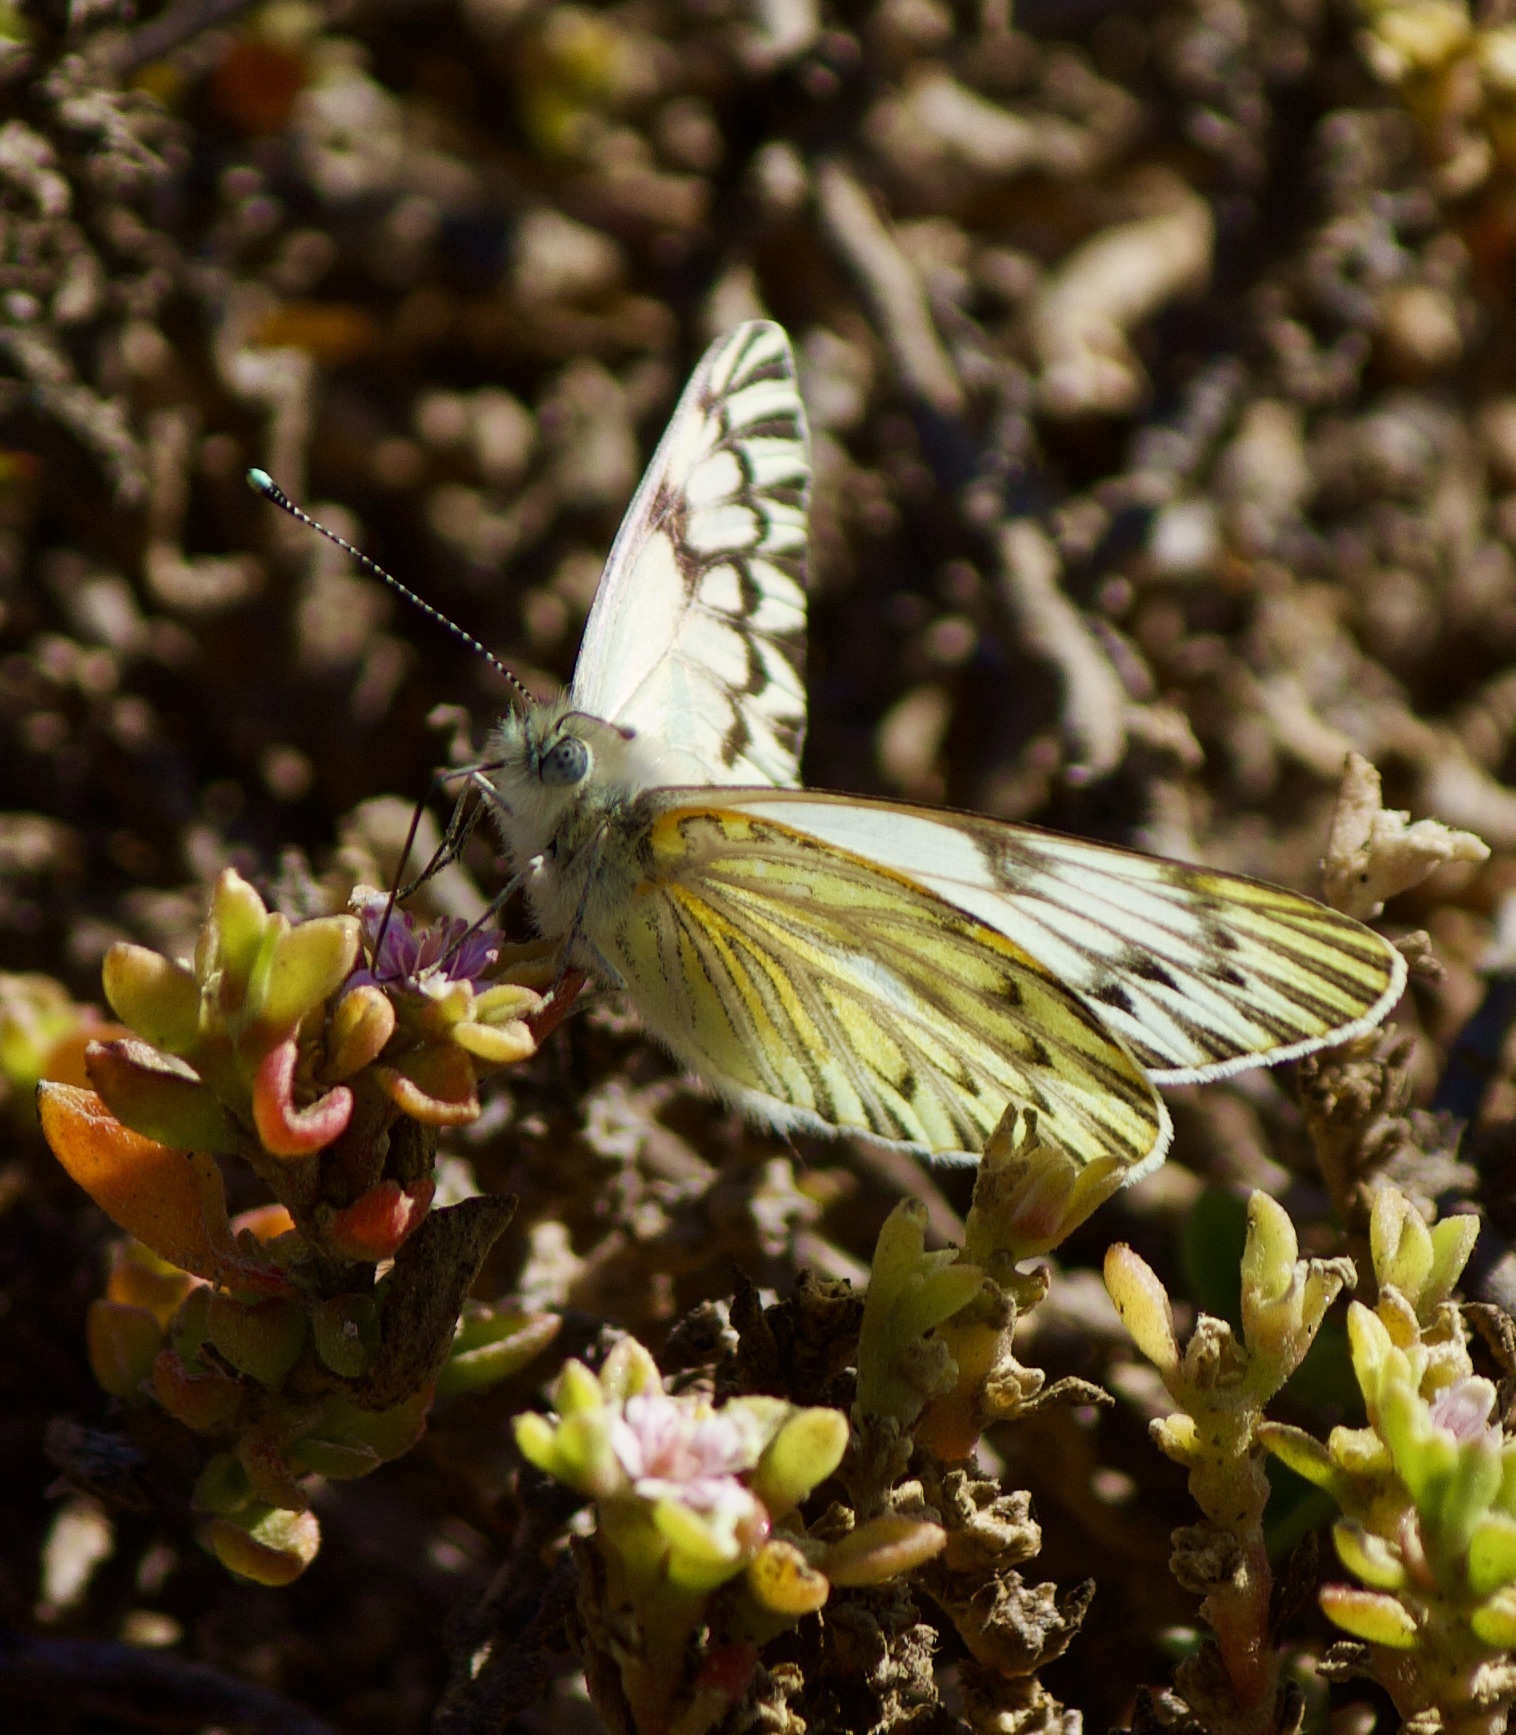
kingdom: Animalia
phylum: Arthropoda
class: Insecta
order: Lepidoptera
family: Pieridae
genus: Tatochila
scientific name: Tatochila mercedis
